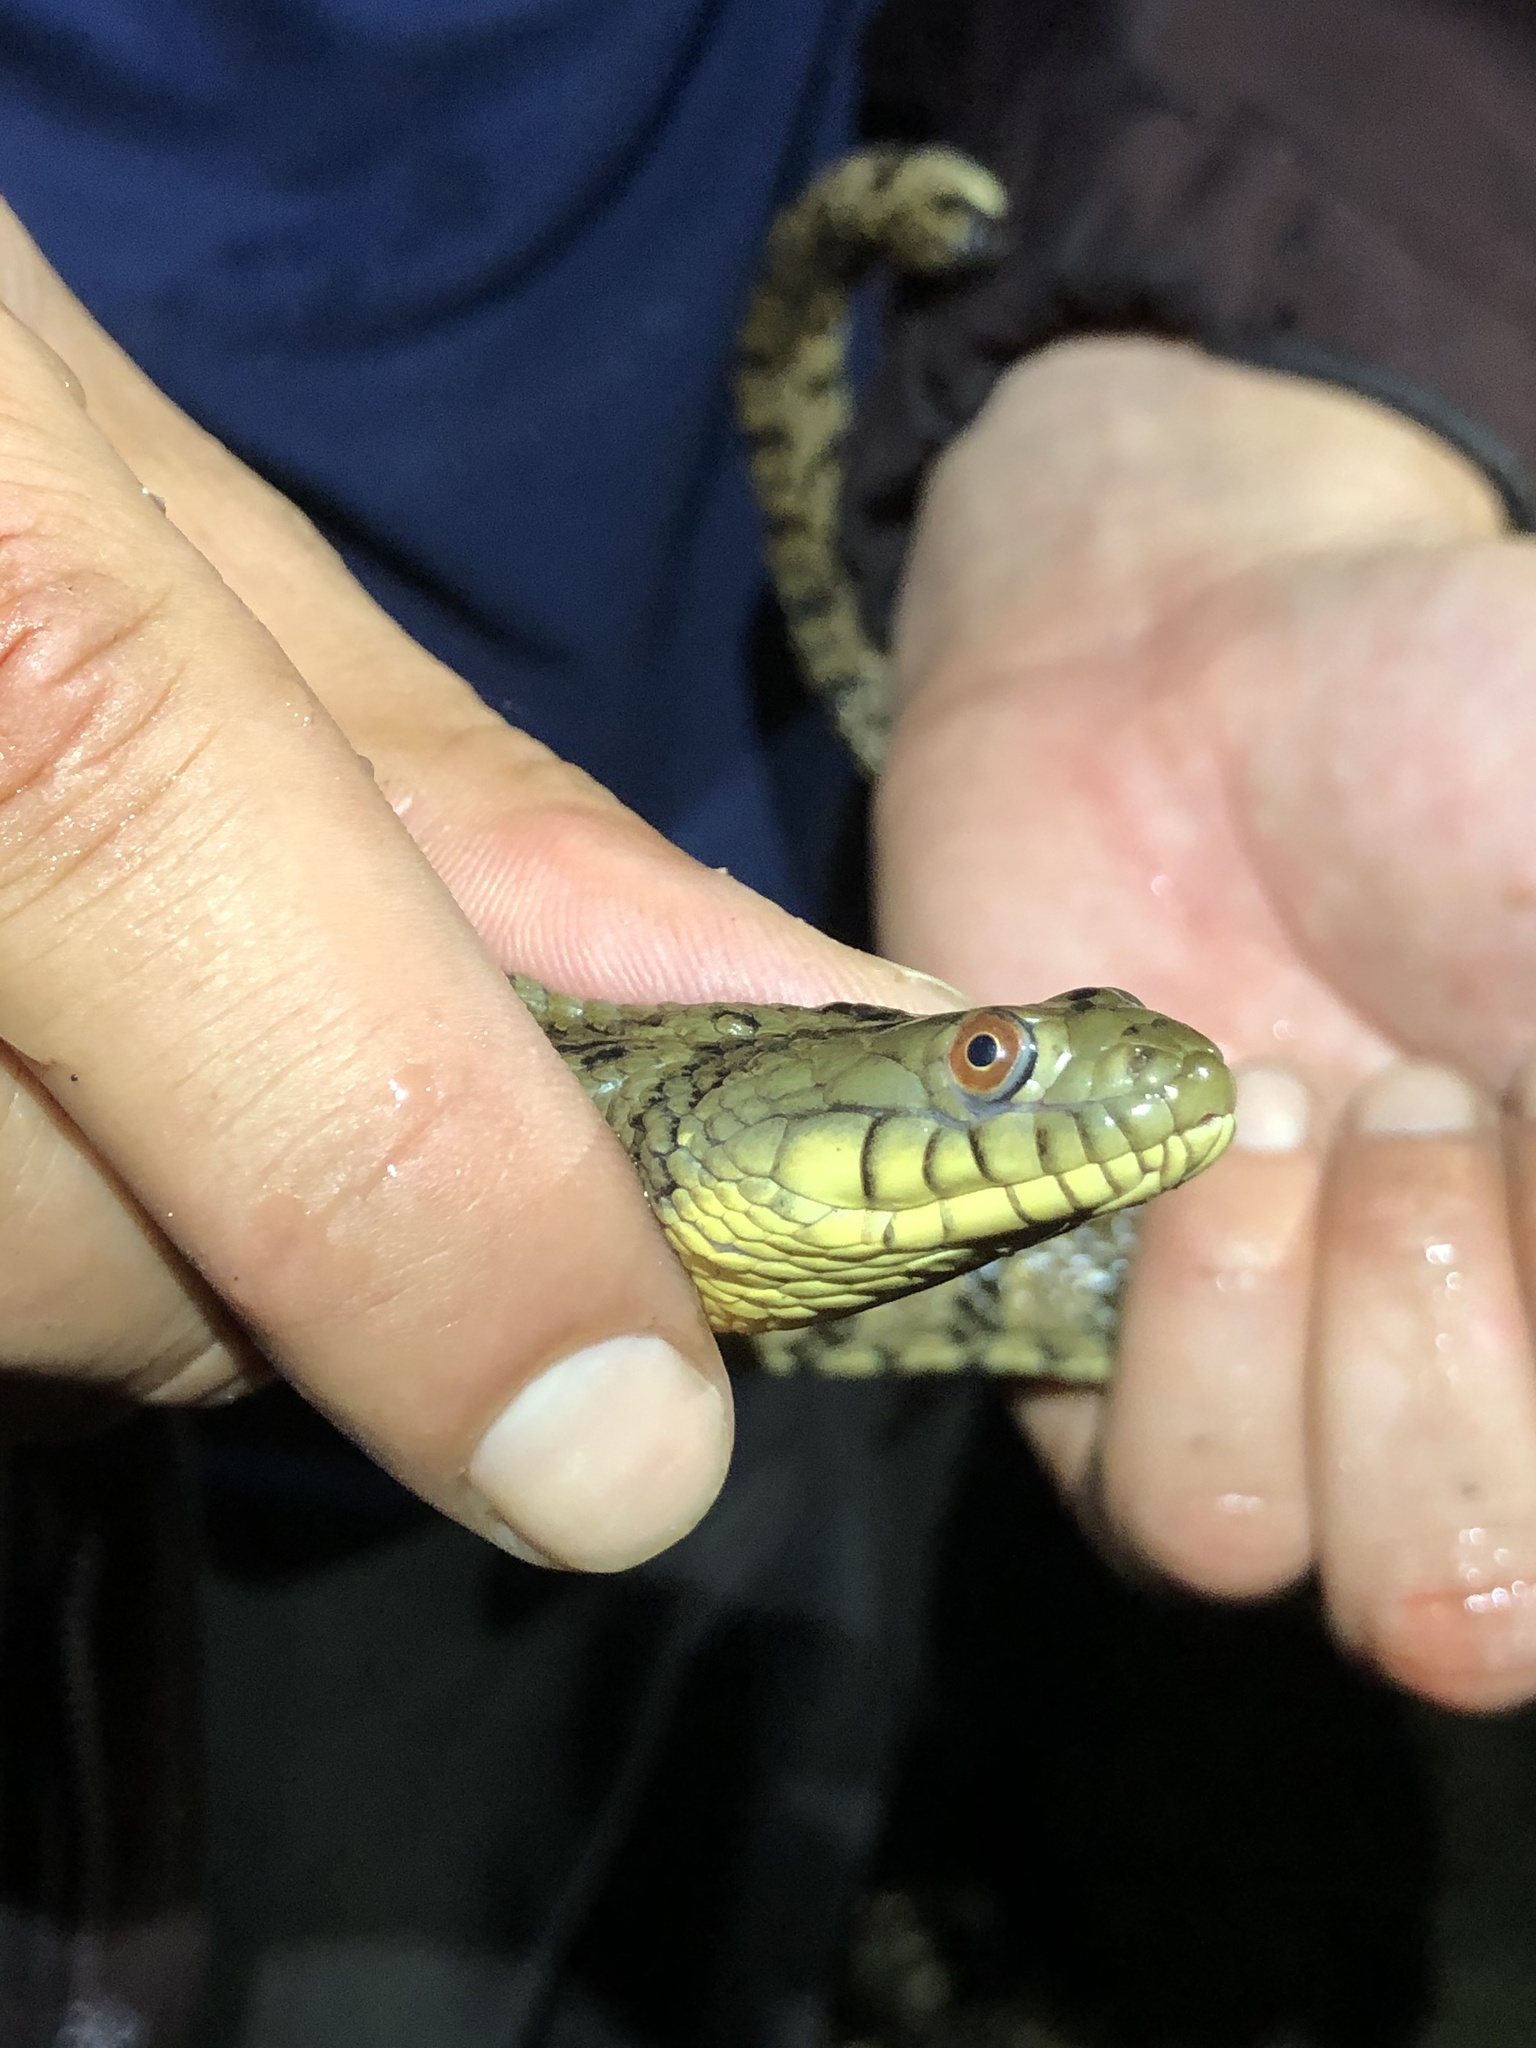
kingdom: Animalia
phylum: Chordata
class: Squamata
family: Colubridae
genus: Nerodia
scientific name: Nerodia rhombifer
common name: Diamondback water snake
